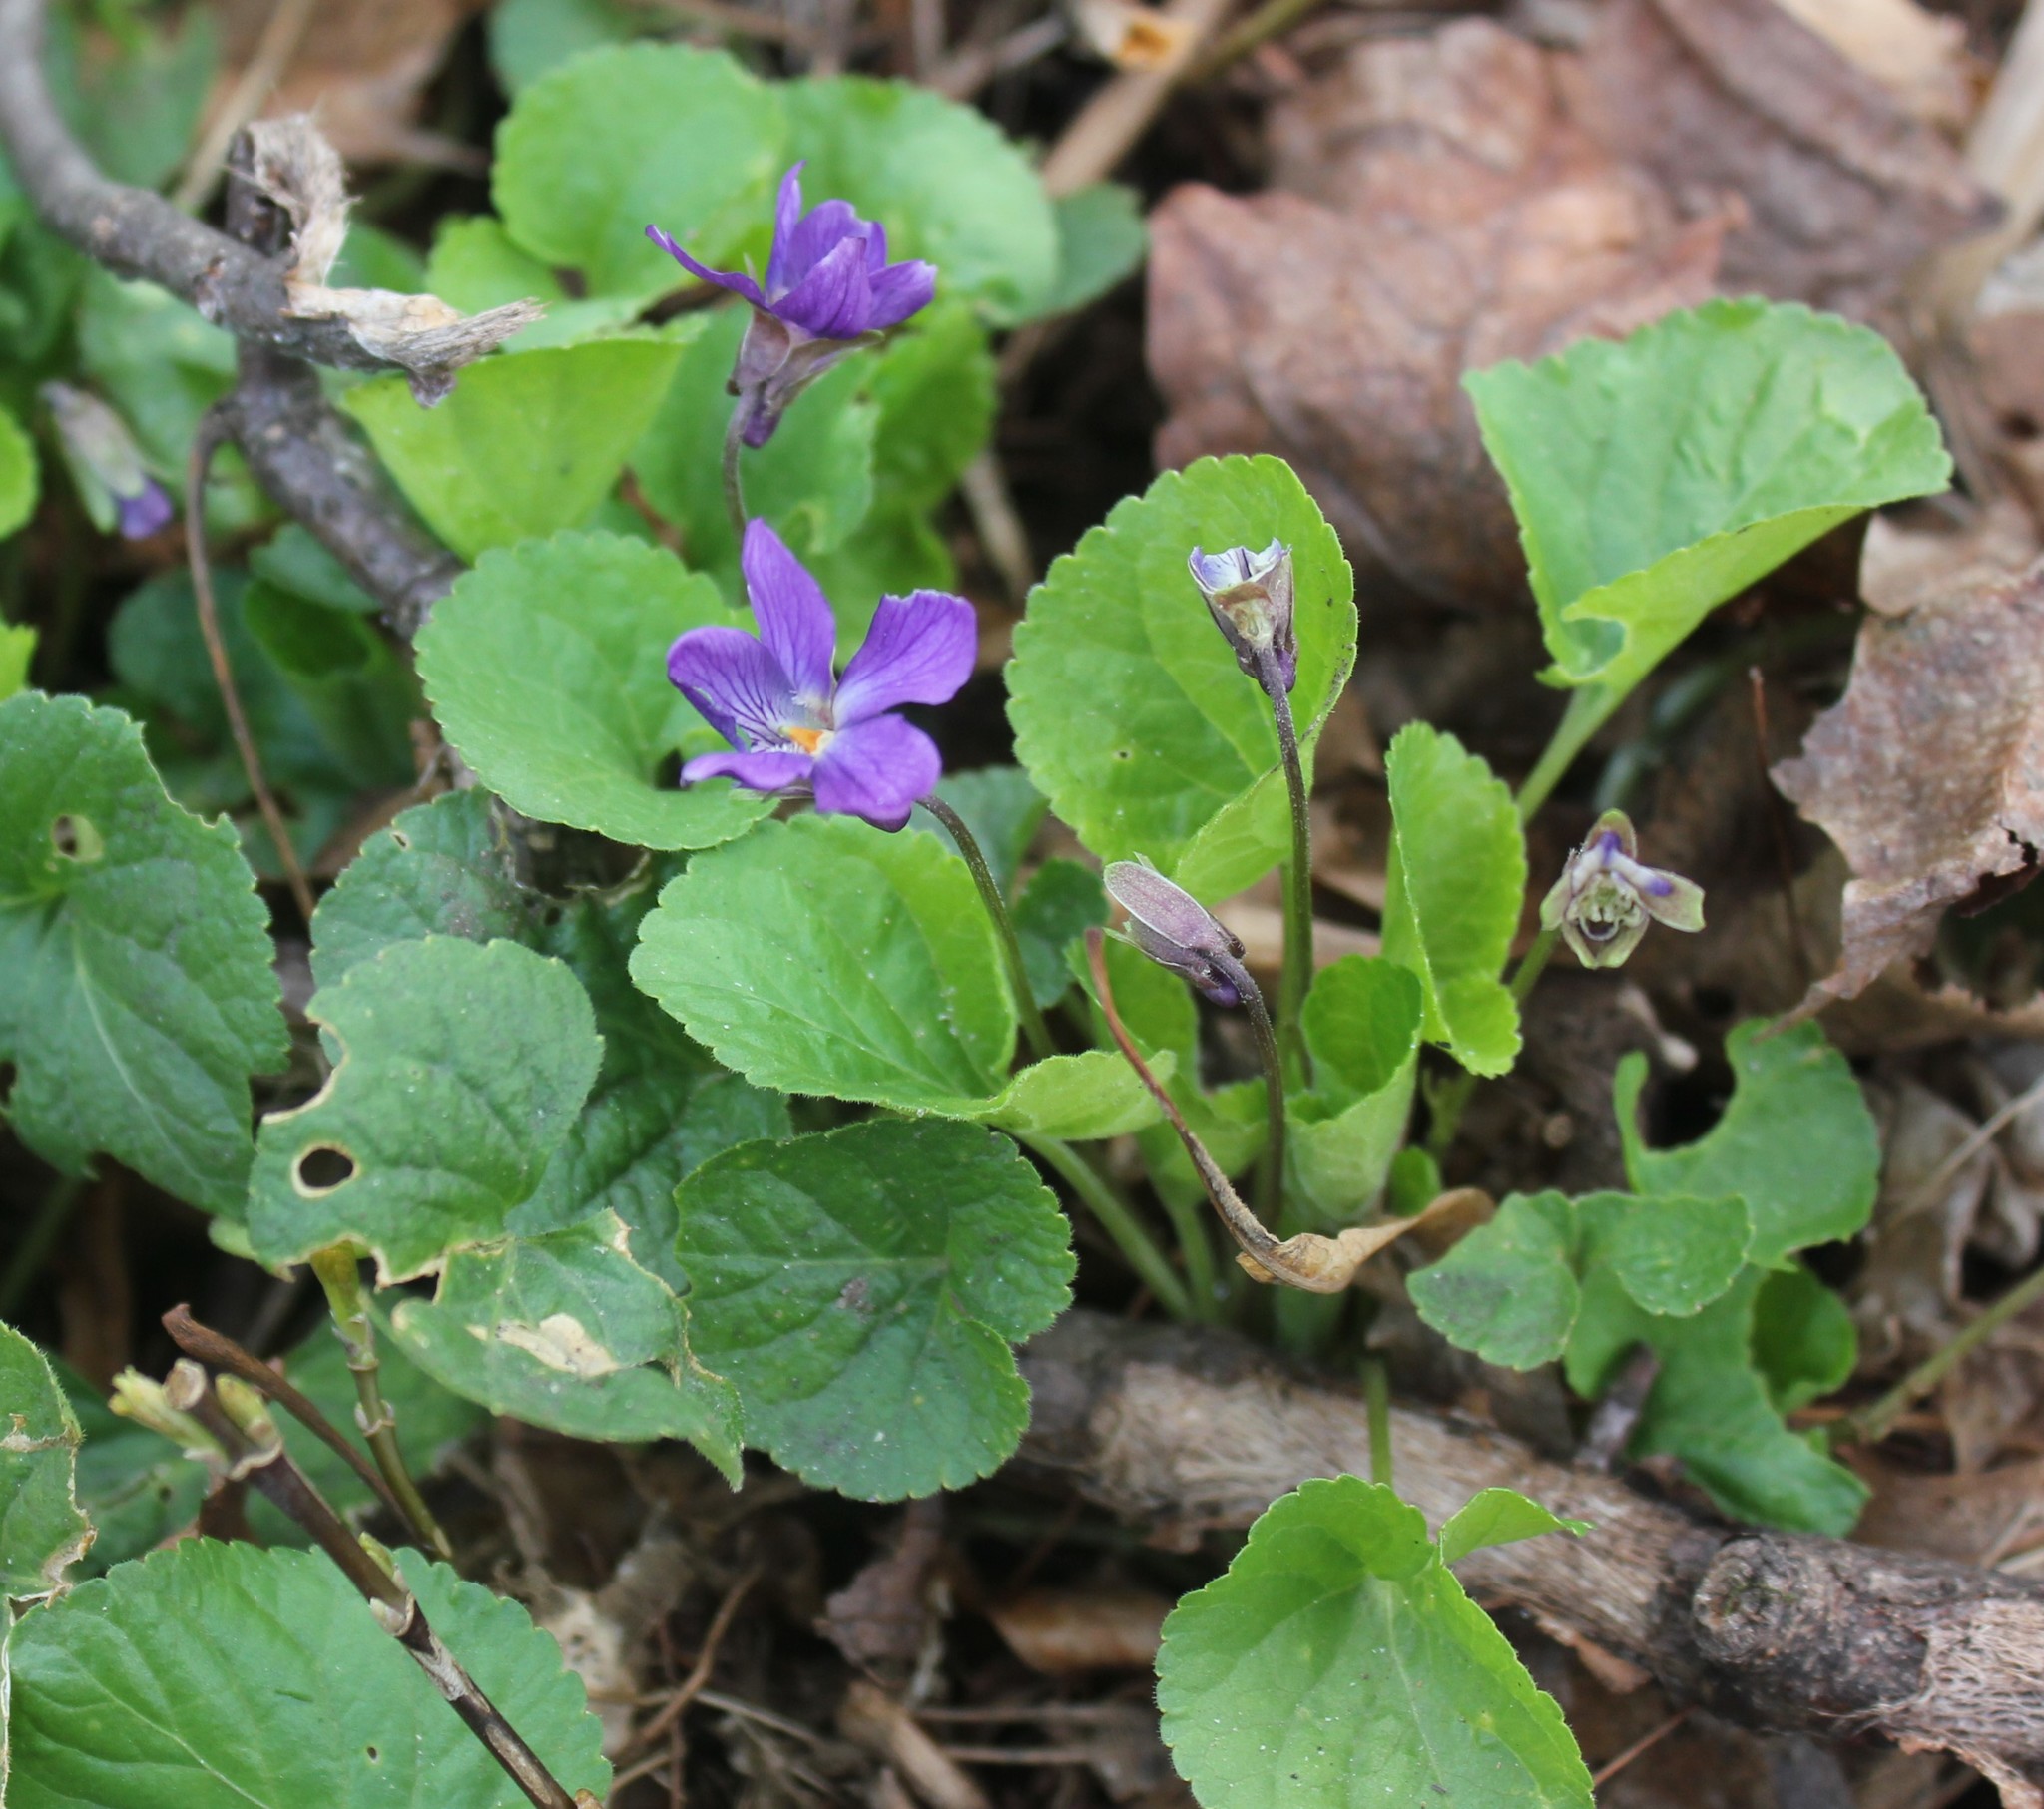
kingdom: Plantae
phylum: Tracheophyta
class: Magnoliopsida
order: Malpighiales
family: Violaceae
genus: Viola
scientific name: Viola odorata
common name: Sweet violet
